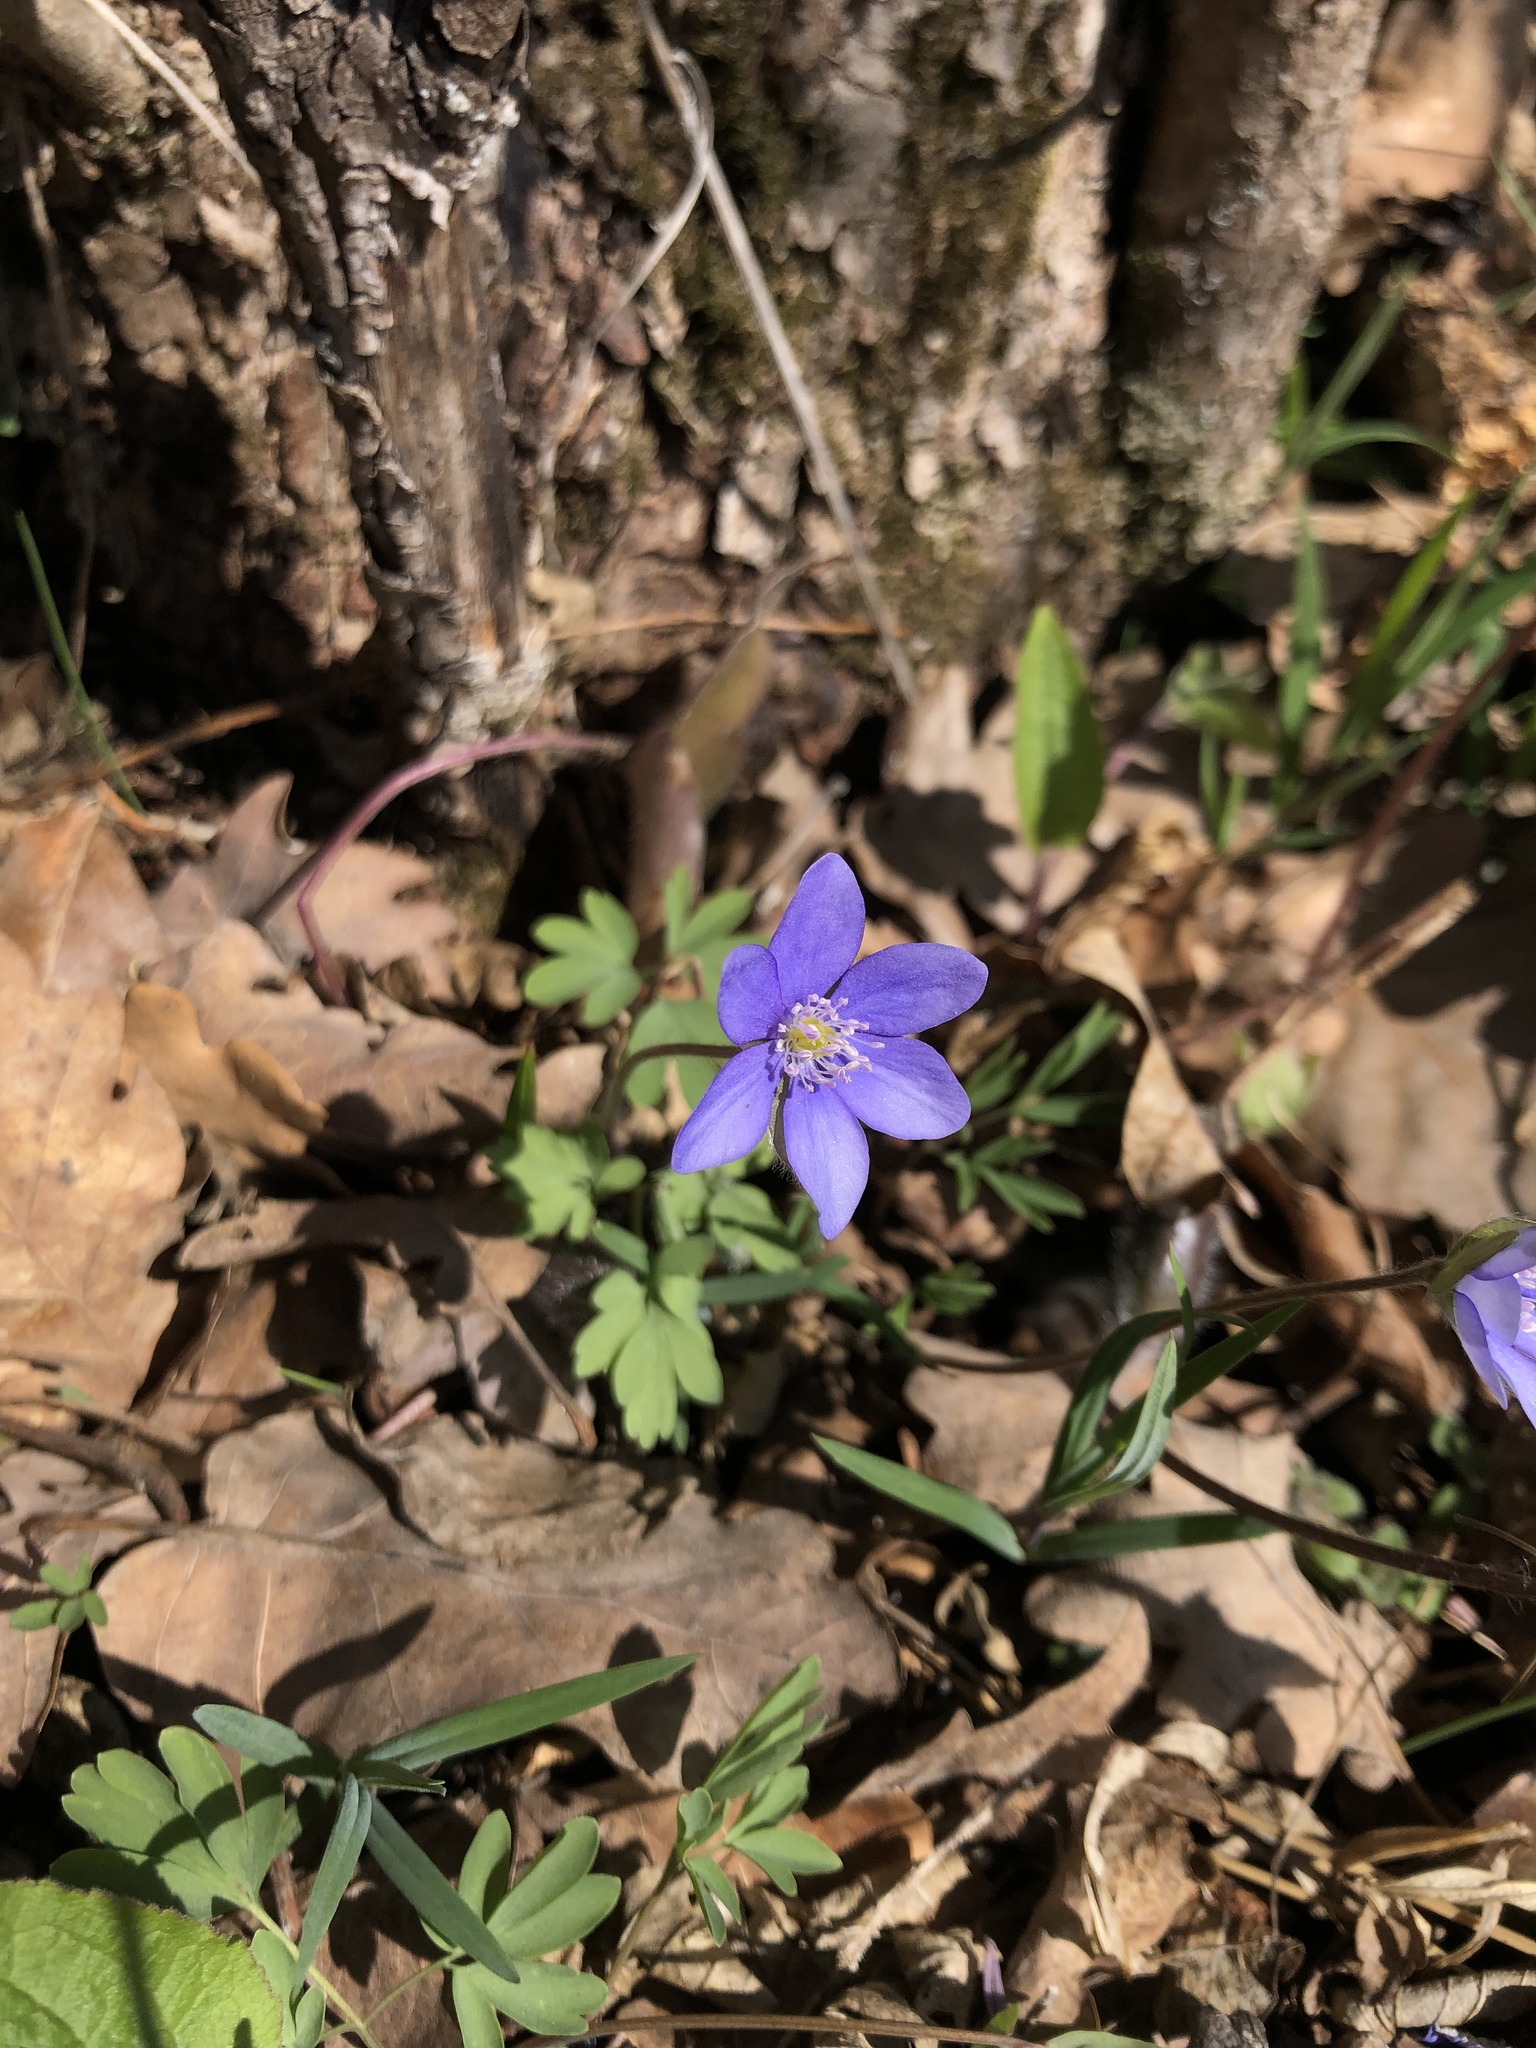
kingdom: Plantae
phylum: Tracheophyta
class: Magnoliopsida
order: Ranunculales
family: Ranunculaceae
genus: Hepatica
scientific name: Hepatica nobilis
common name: Liverleaf
